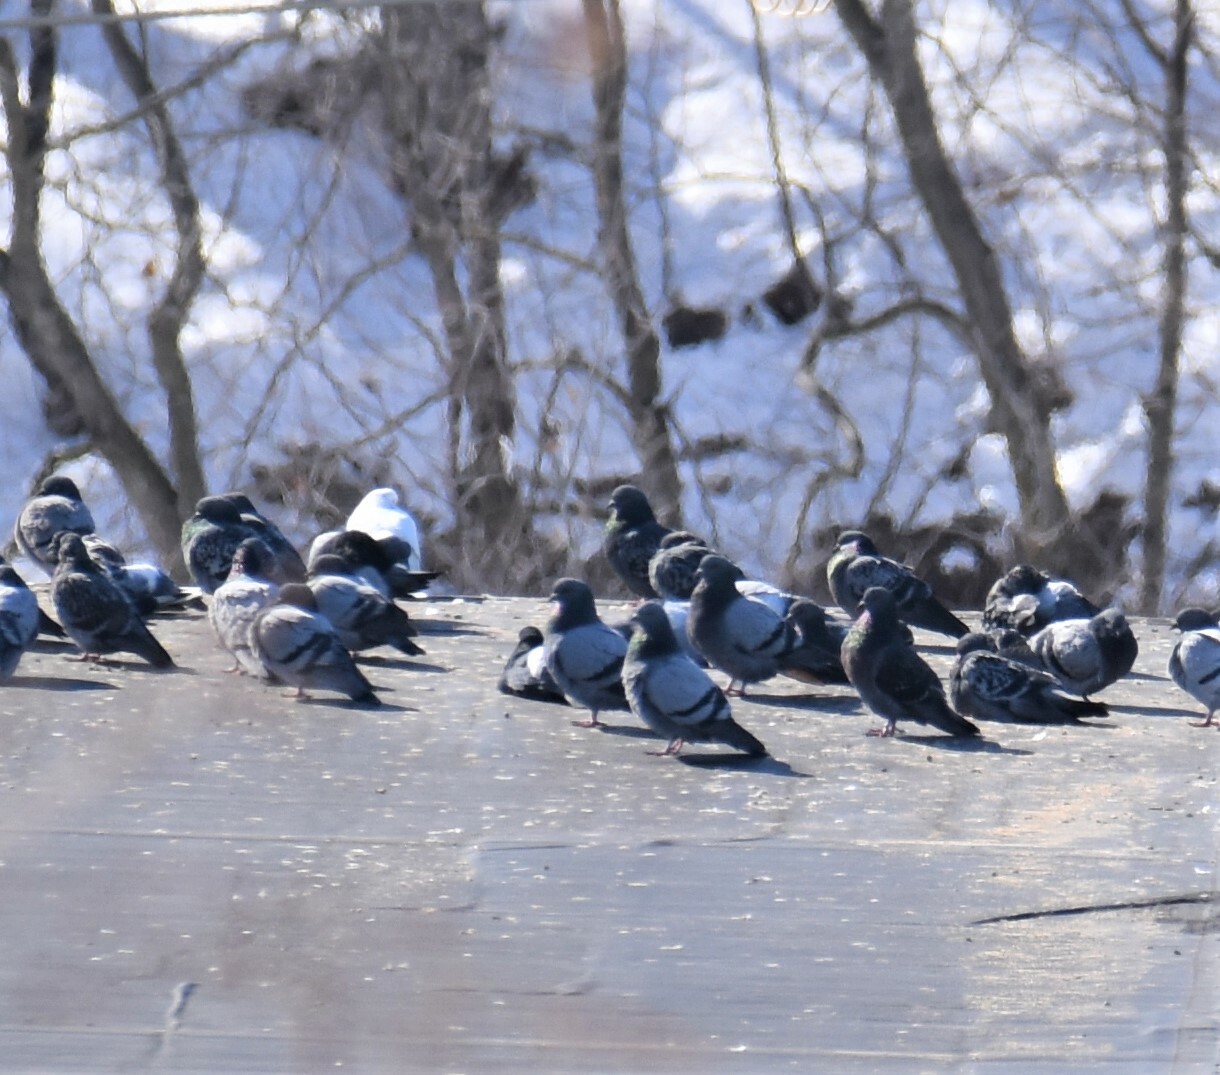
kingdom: Animalia
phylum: Chordata
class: Aves
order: Columbiformes
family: Columbidae
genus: Columba
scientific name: Columba livia
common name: Rock pigeon
